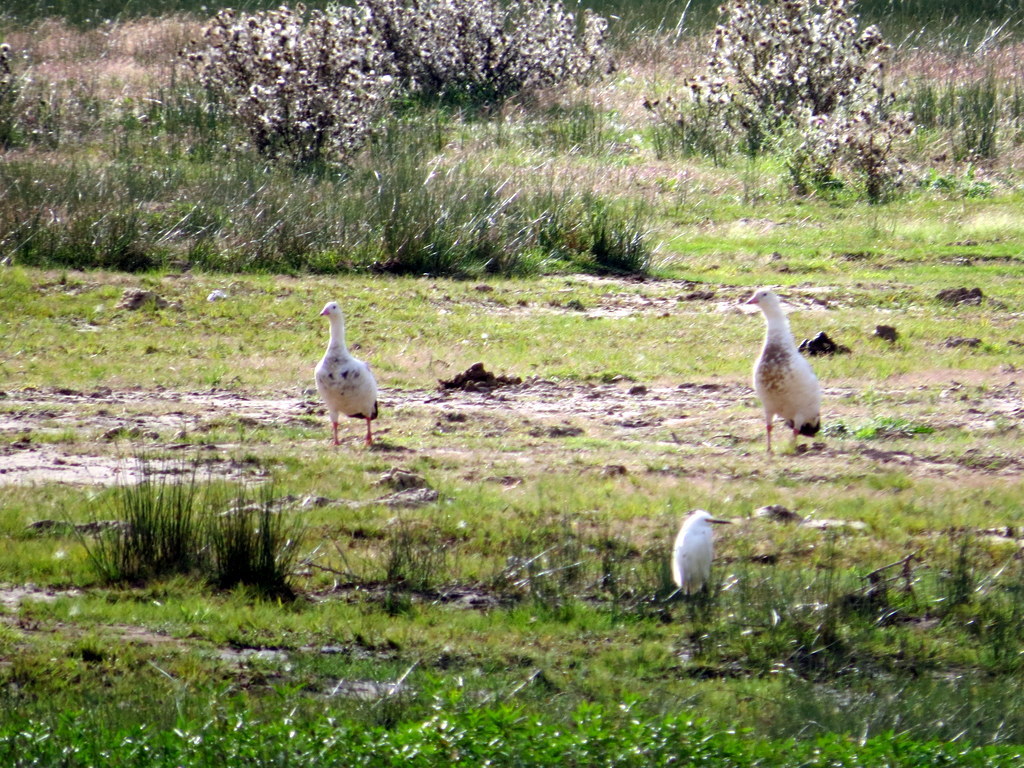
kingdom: Animalia
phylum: Chordata
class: Aves
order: Anseriformes
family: Anatidae
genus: Chloephaga
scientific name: Chloephaga melanoptera
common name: Andean goose
